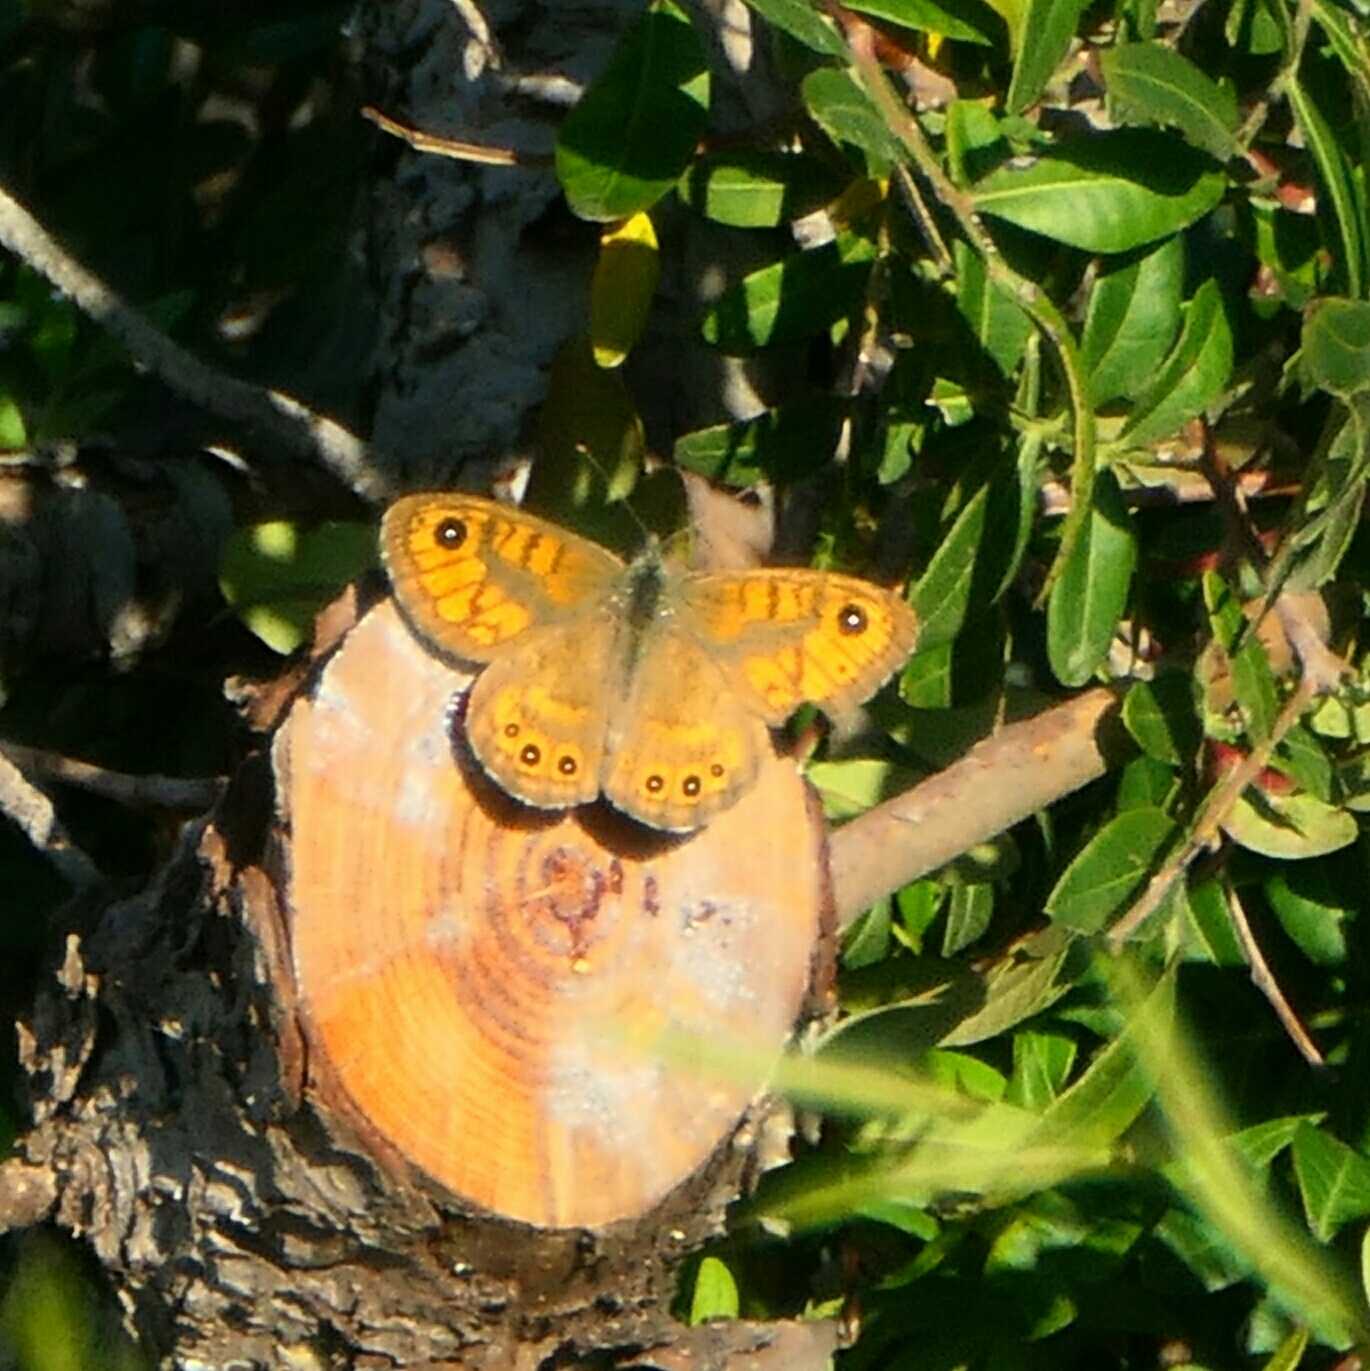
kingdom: Animalia
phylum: Arthropoda
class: Insecta
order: Lepidoptera
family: Nymphalidae
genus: Pararge
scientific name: Pararge Lasiommata megera
